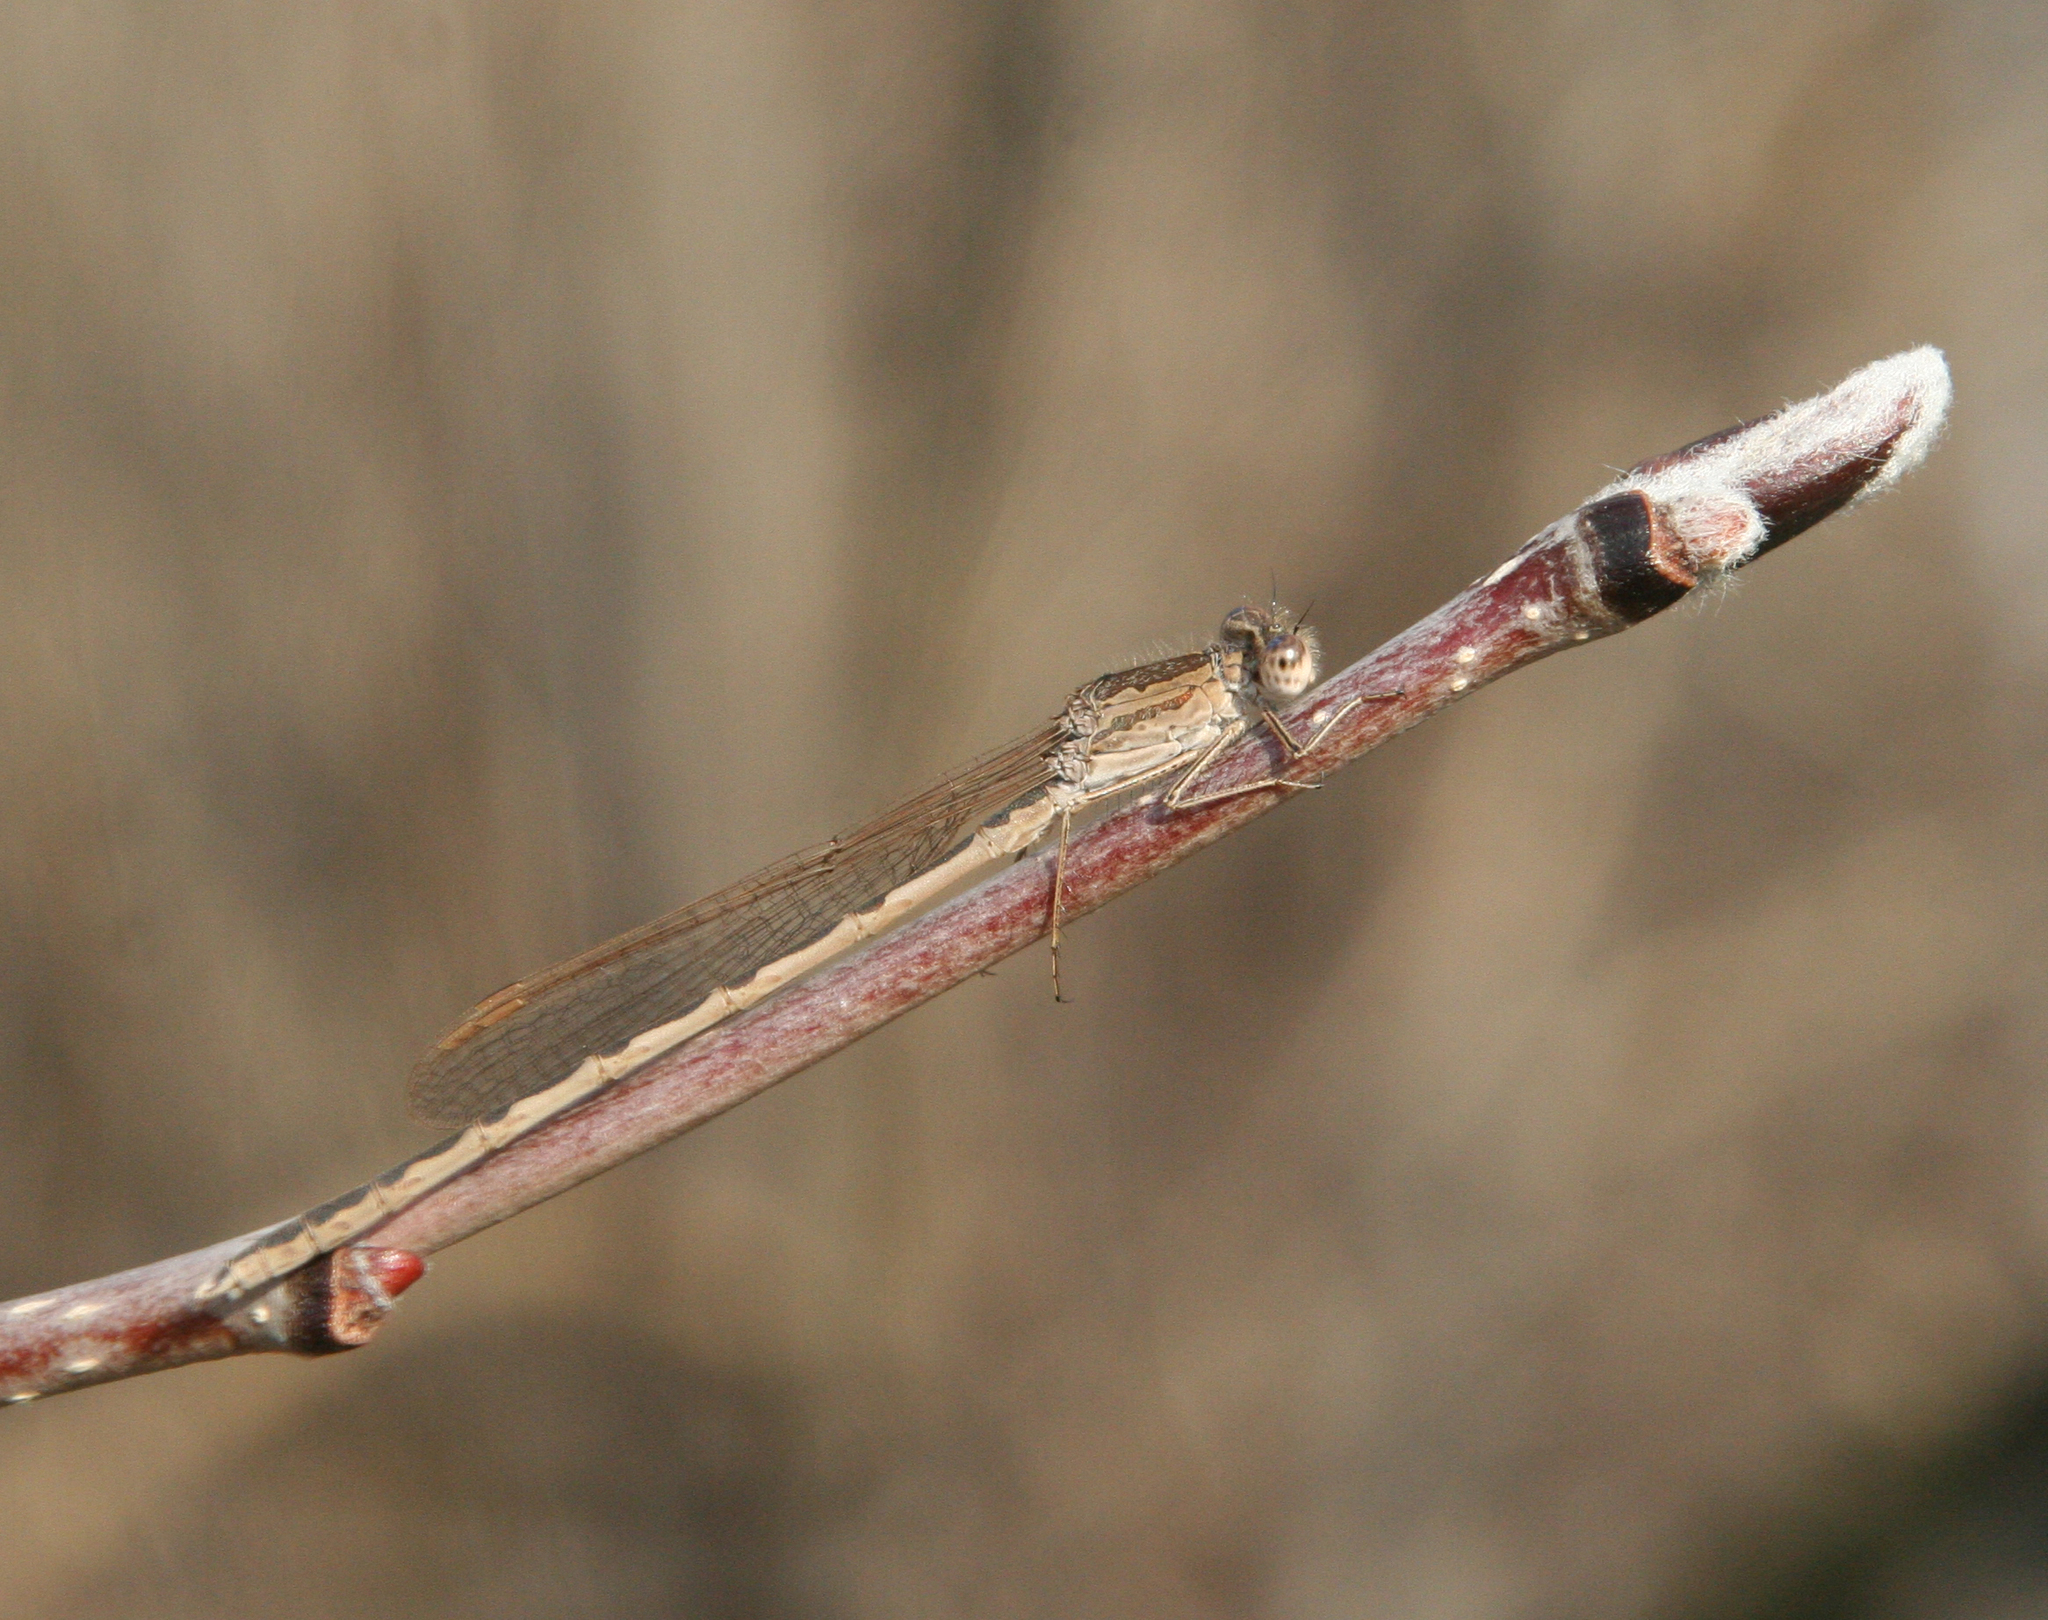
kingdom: Animalia
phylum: Arthropoda
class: Insecta
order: Odonata
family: Lestidae
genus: Sympecma
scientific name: Sympecma paedisca
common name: Siberian winter damsel
